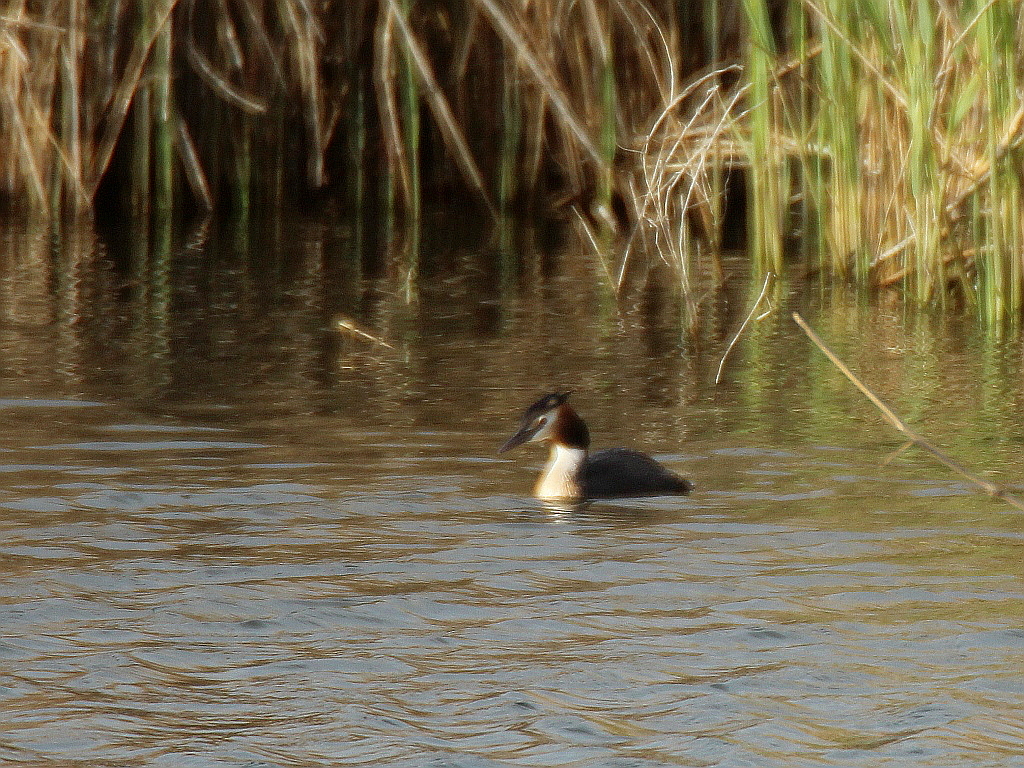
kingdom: Animalia
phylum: Chordata
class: Aves
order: Podicipediformes
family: Podicipedidae
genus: Podiceps
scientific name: Podiceps cristatus
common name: Great crested grebe
